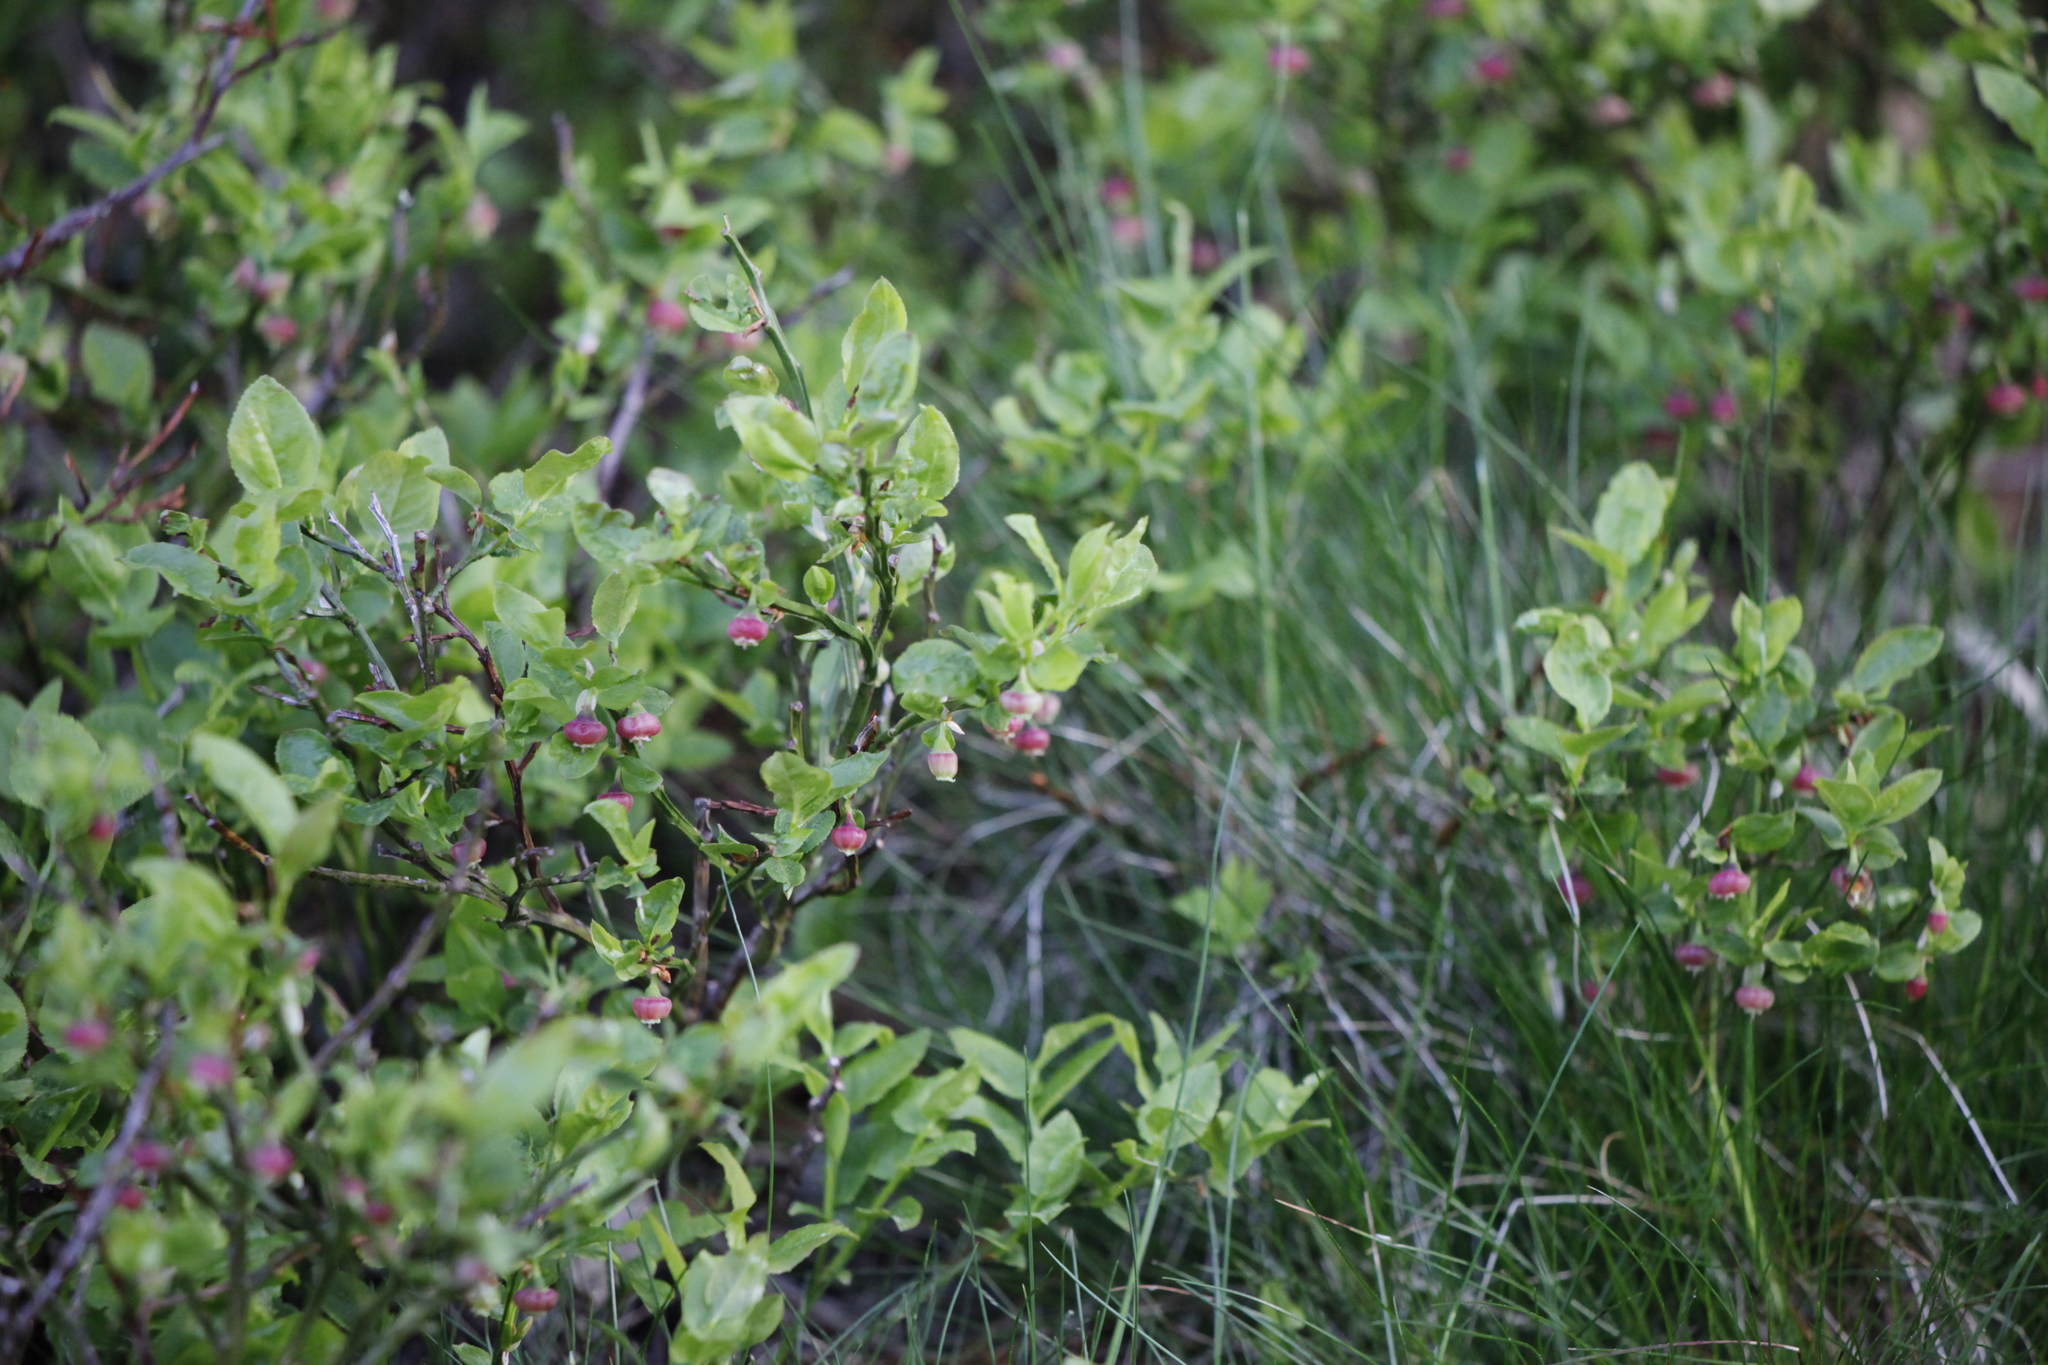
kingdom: Plantae
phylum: Tracheophyta
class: Magnoliopsida
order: Ericales
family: Ericaceae
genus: Vaccinium
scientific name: Vaccinium myrtillus
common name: Bilberry
